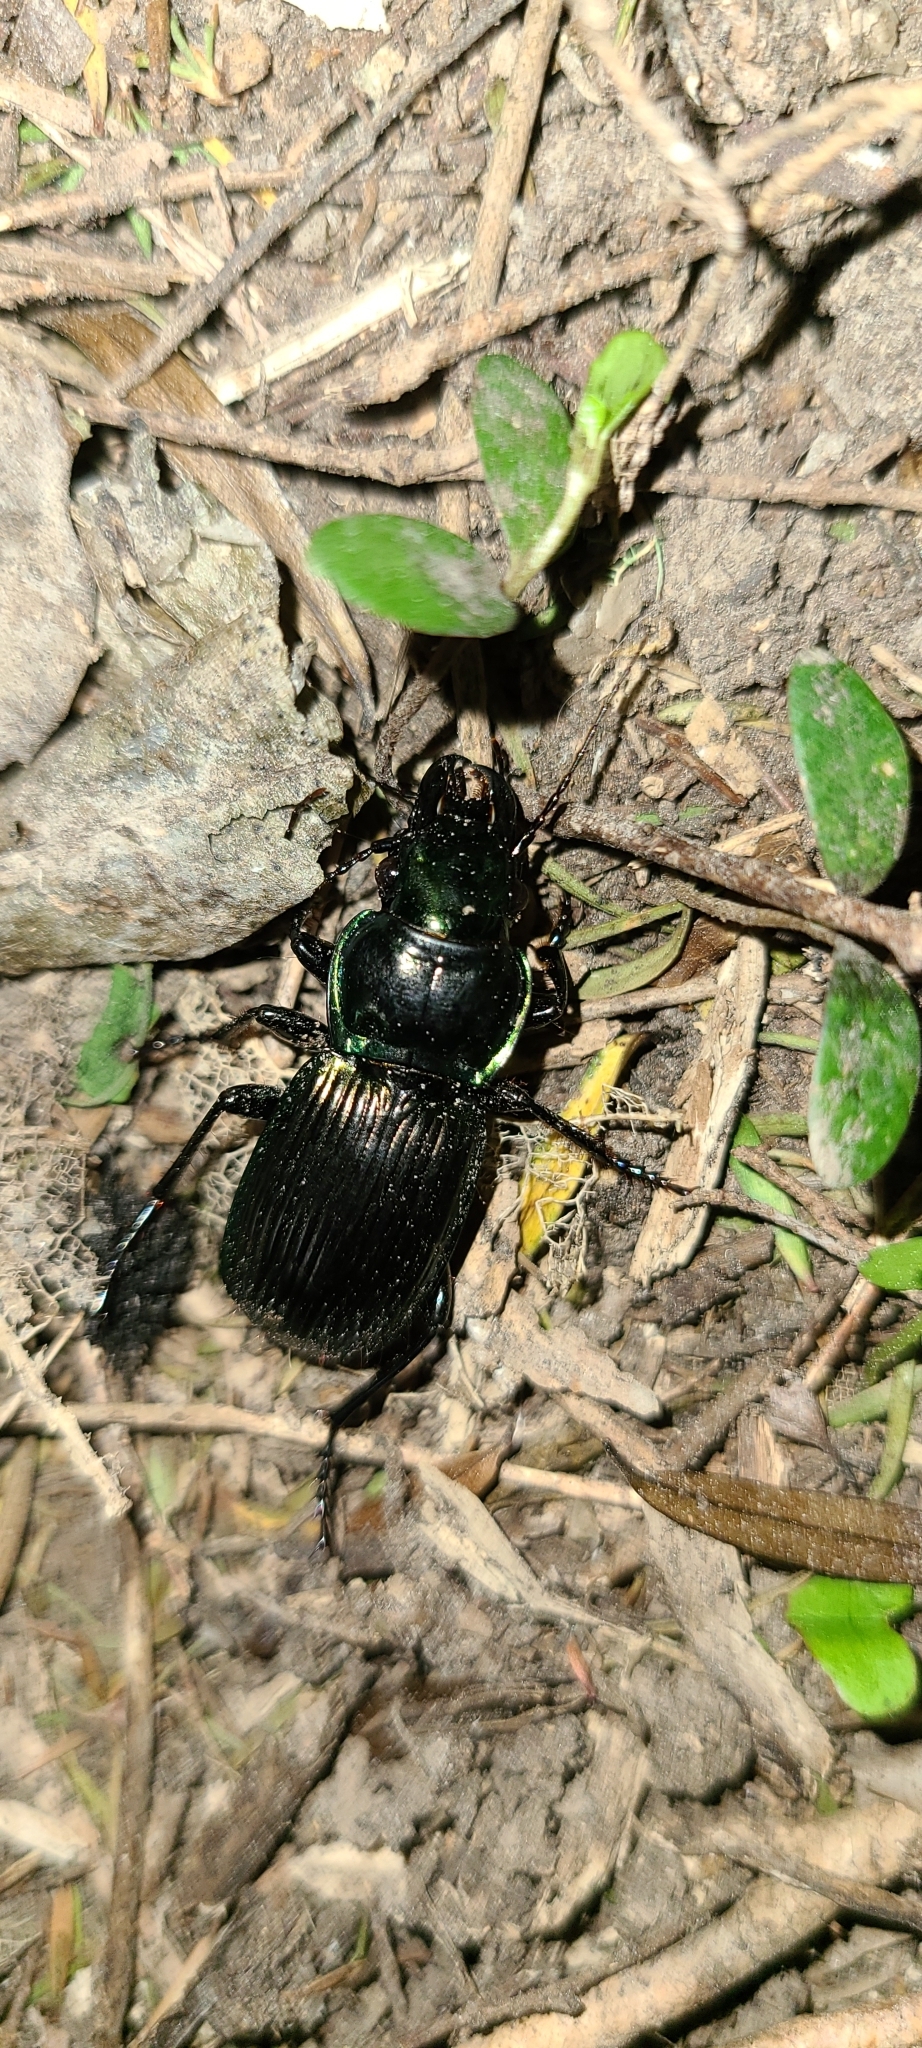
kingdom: Animalia
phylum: Arthropoda
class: Insecta
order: Coleoptera
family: Carabidae
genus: Megadromus
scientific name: Megadromus antarcticus
